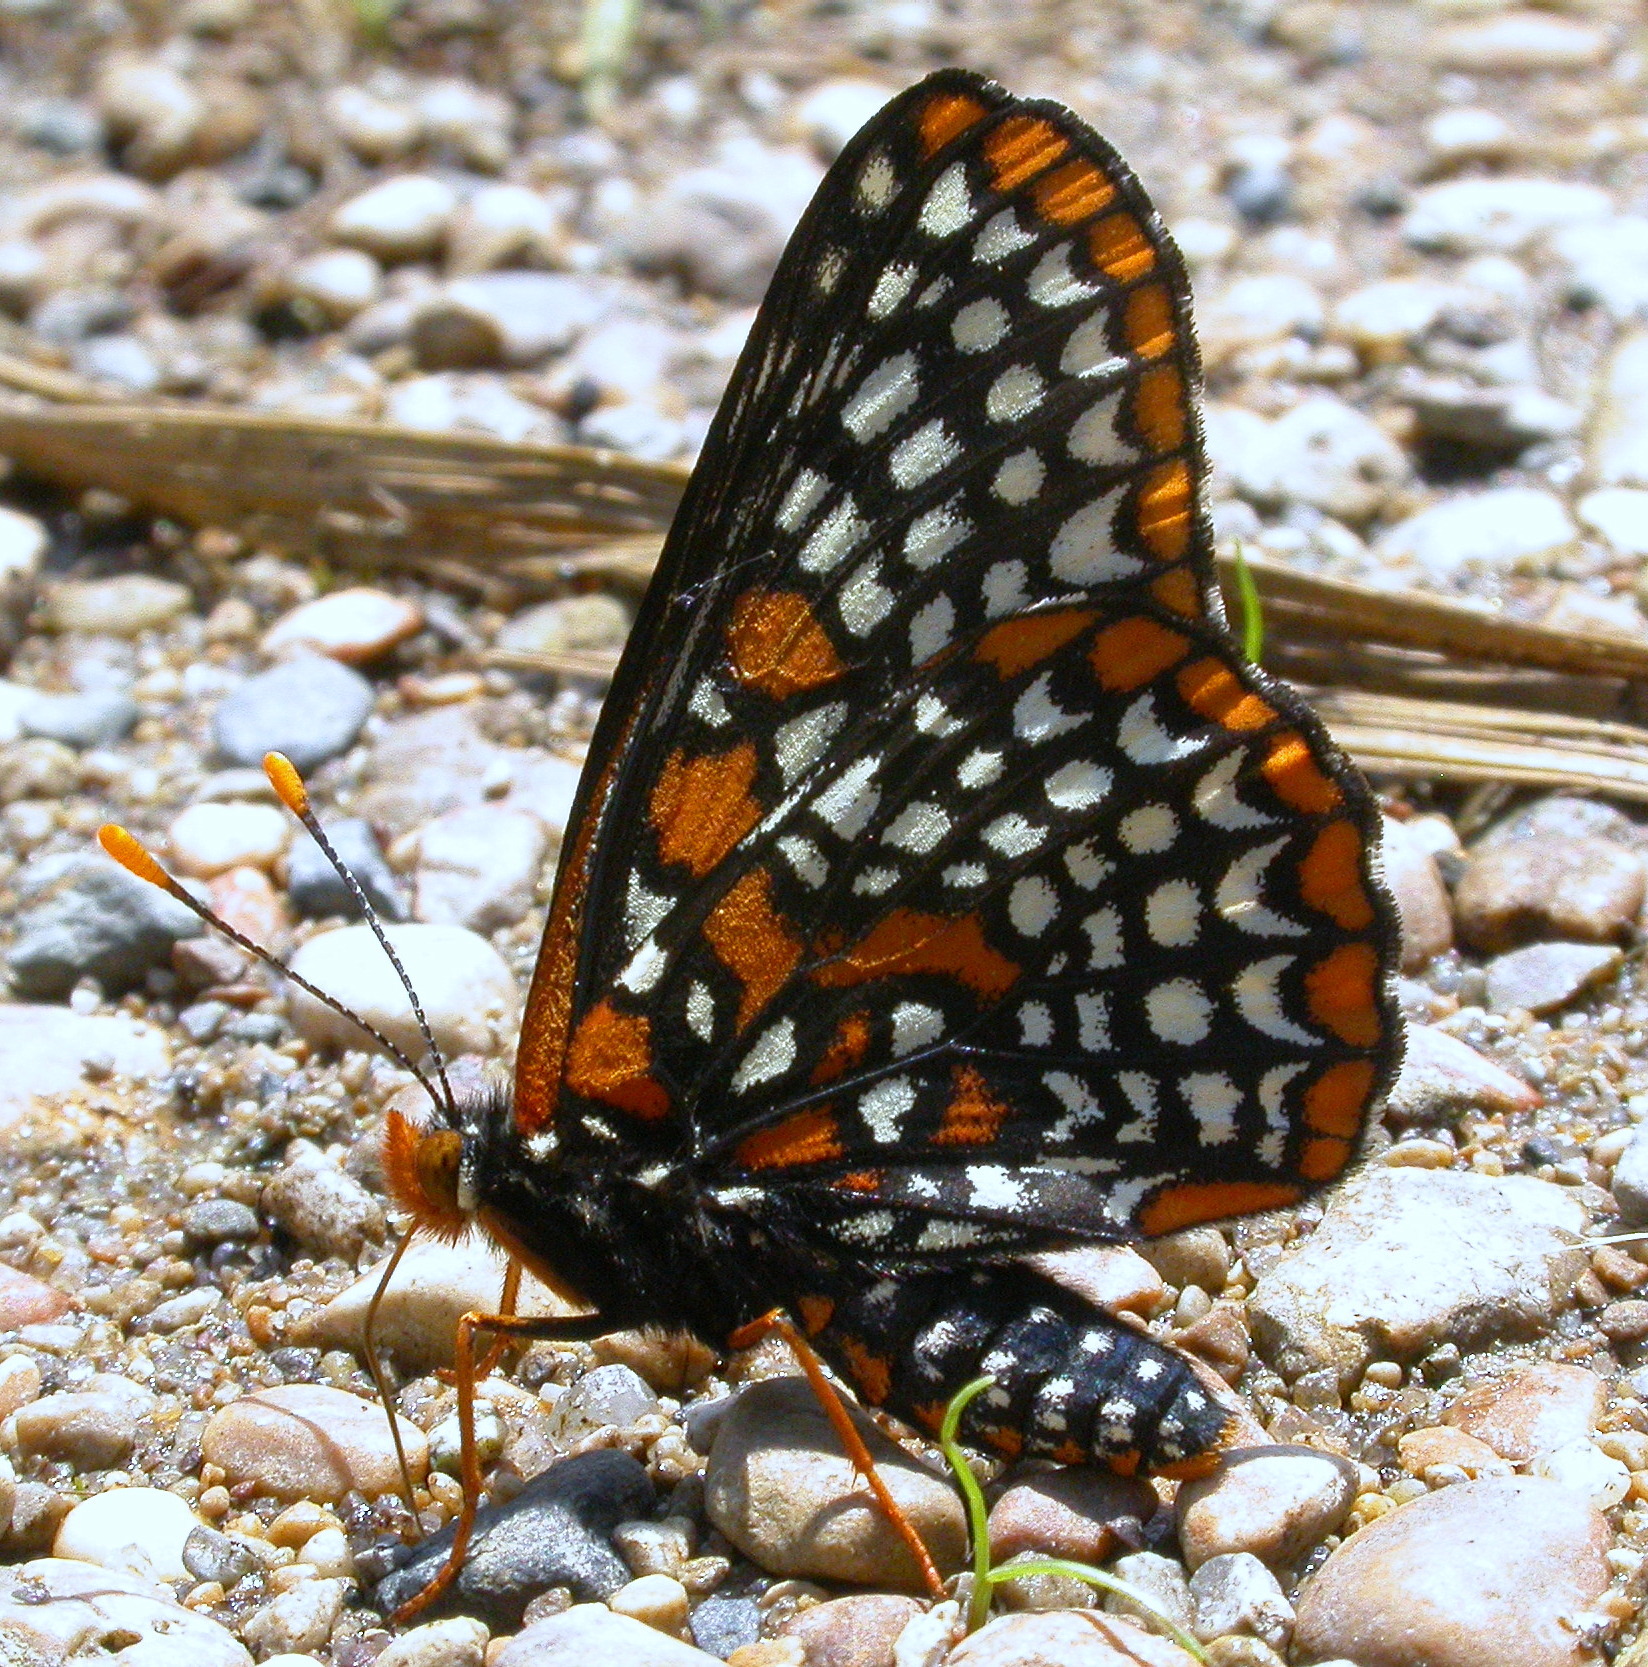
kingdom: Animalia
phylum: Arthropoda
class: Insecta
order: Lepidoptera
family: Nymphalidae
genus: Euphydryas
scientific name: Euphydryas phaeton
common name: Baltimore checkerspot
